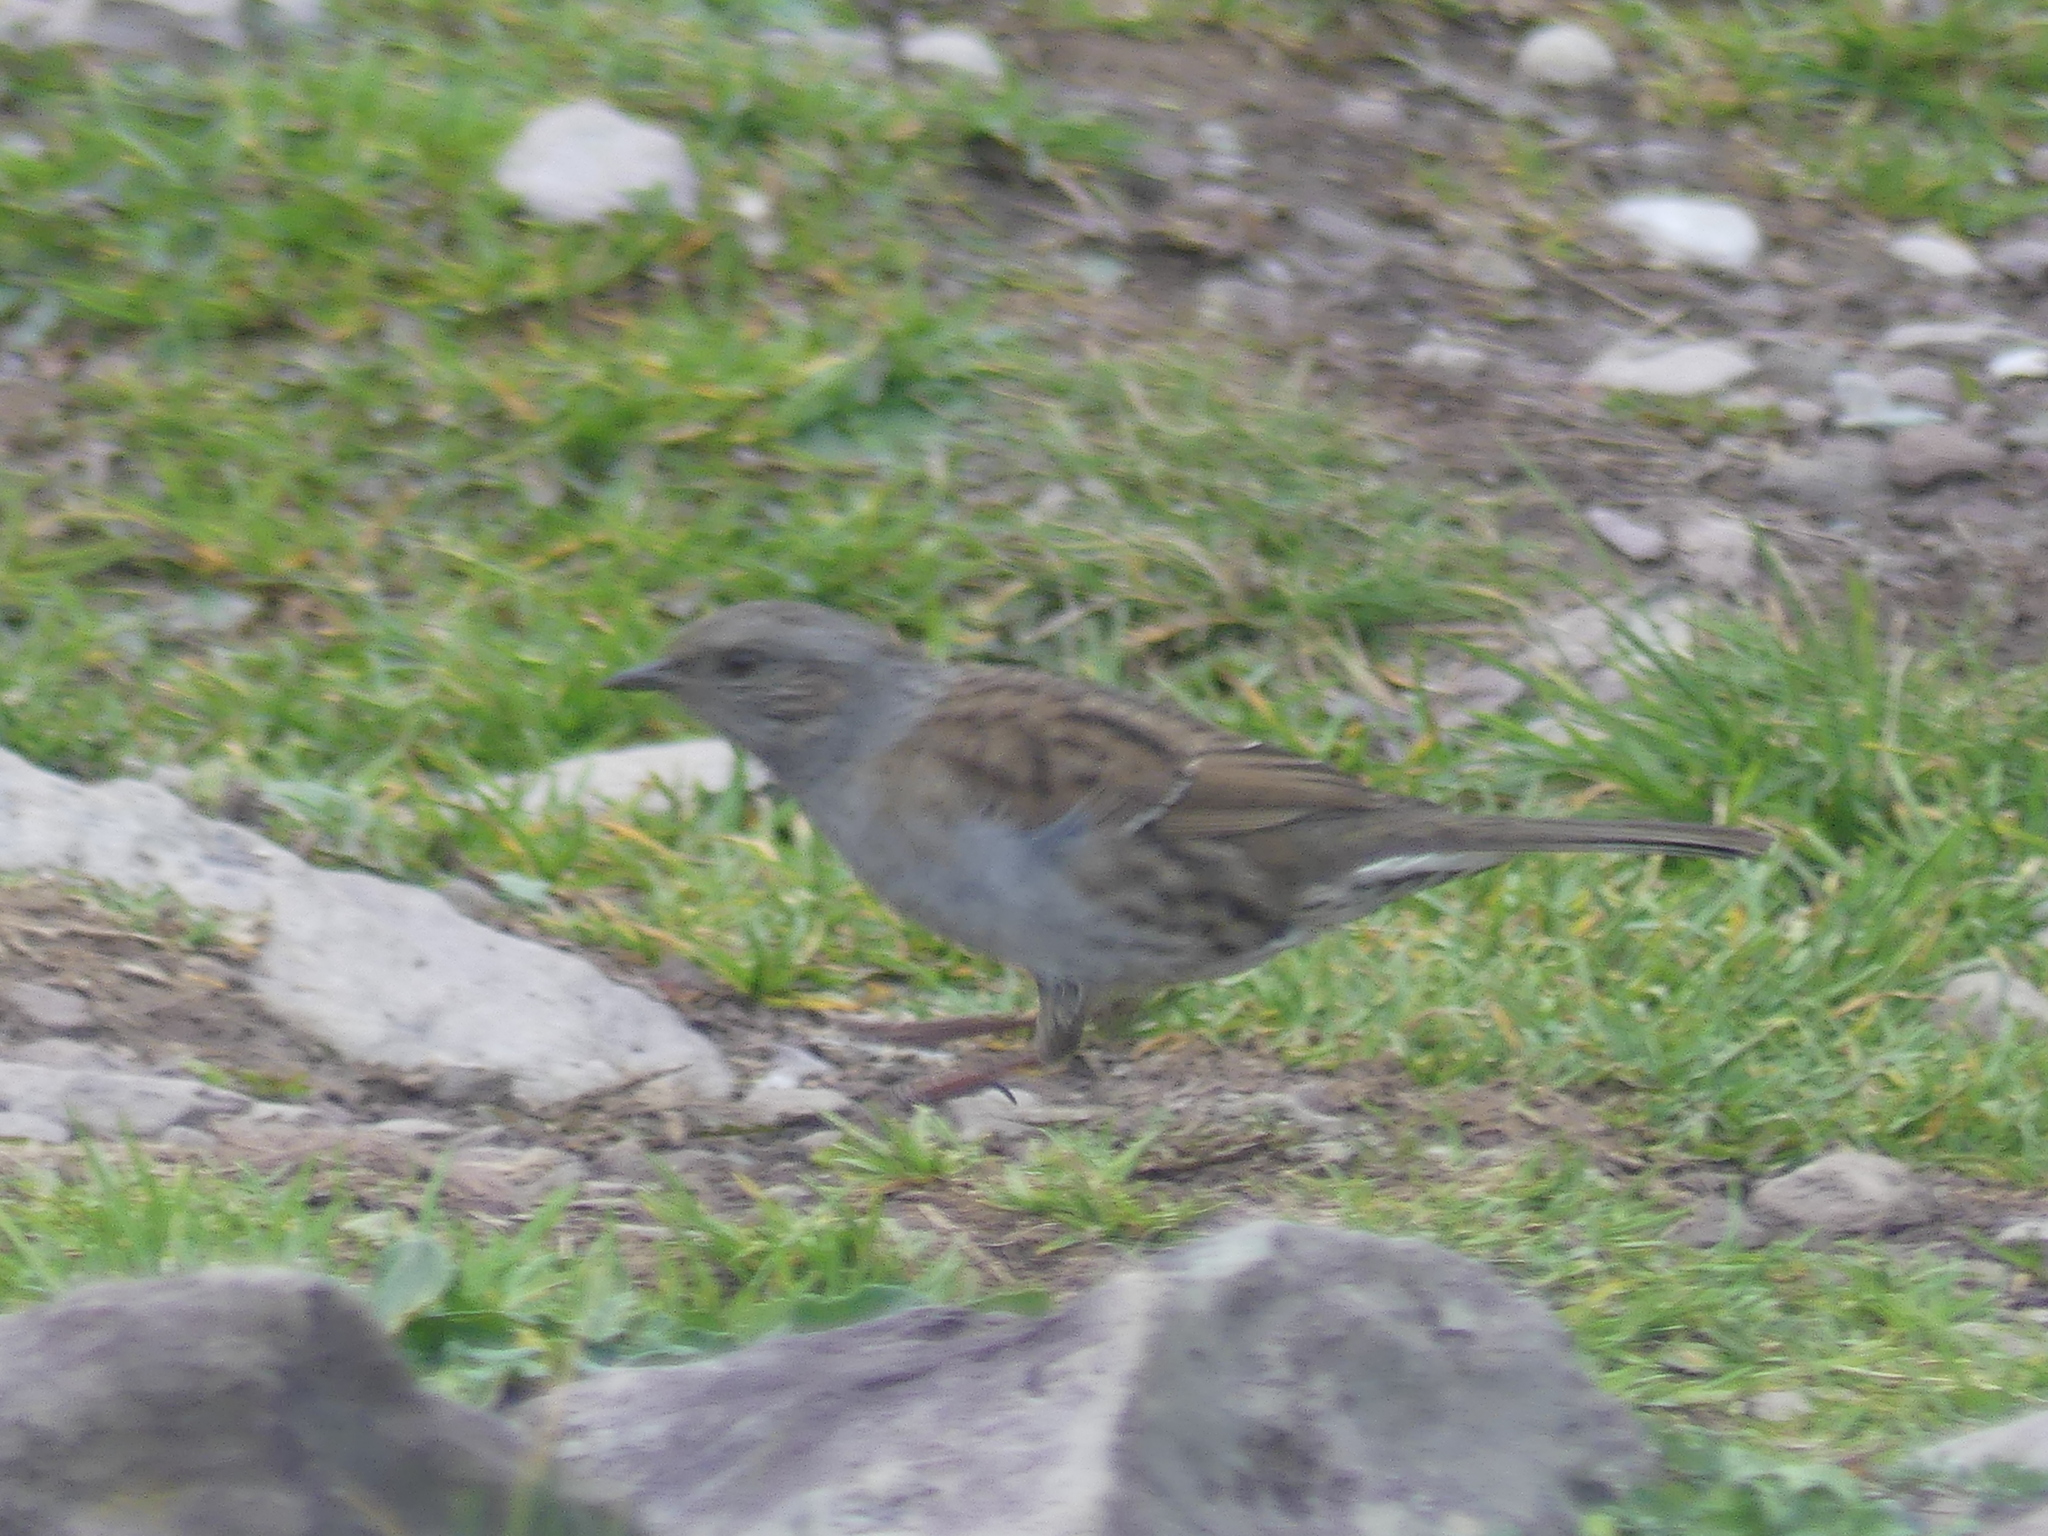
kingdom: Animalia
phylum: Chordata
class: Aves
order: Passeriformes
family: Prunellidae
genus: Prunella
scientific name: Prunella modularis
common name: Dunnock
